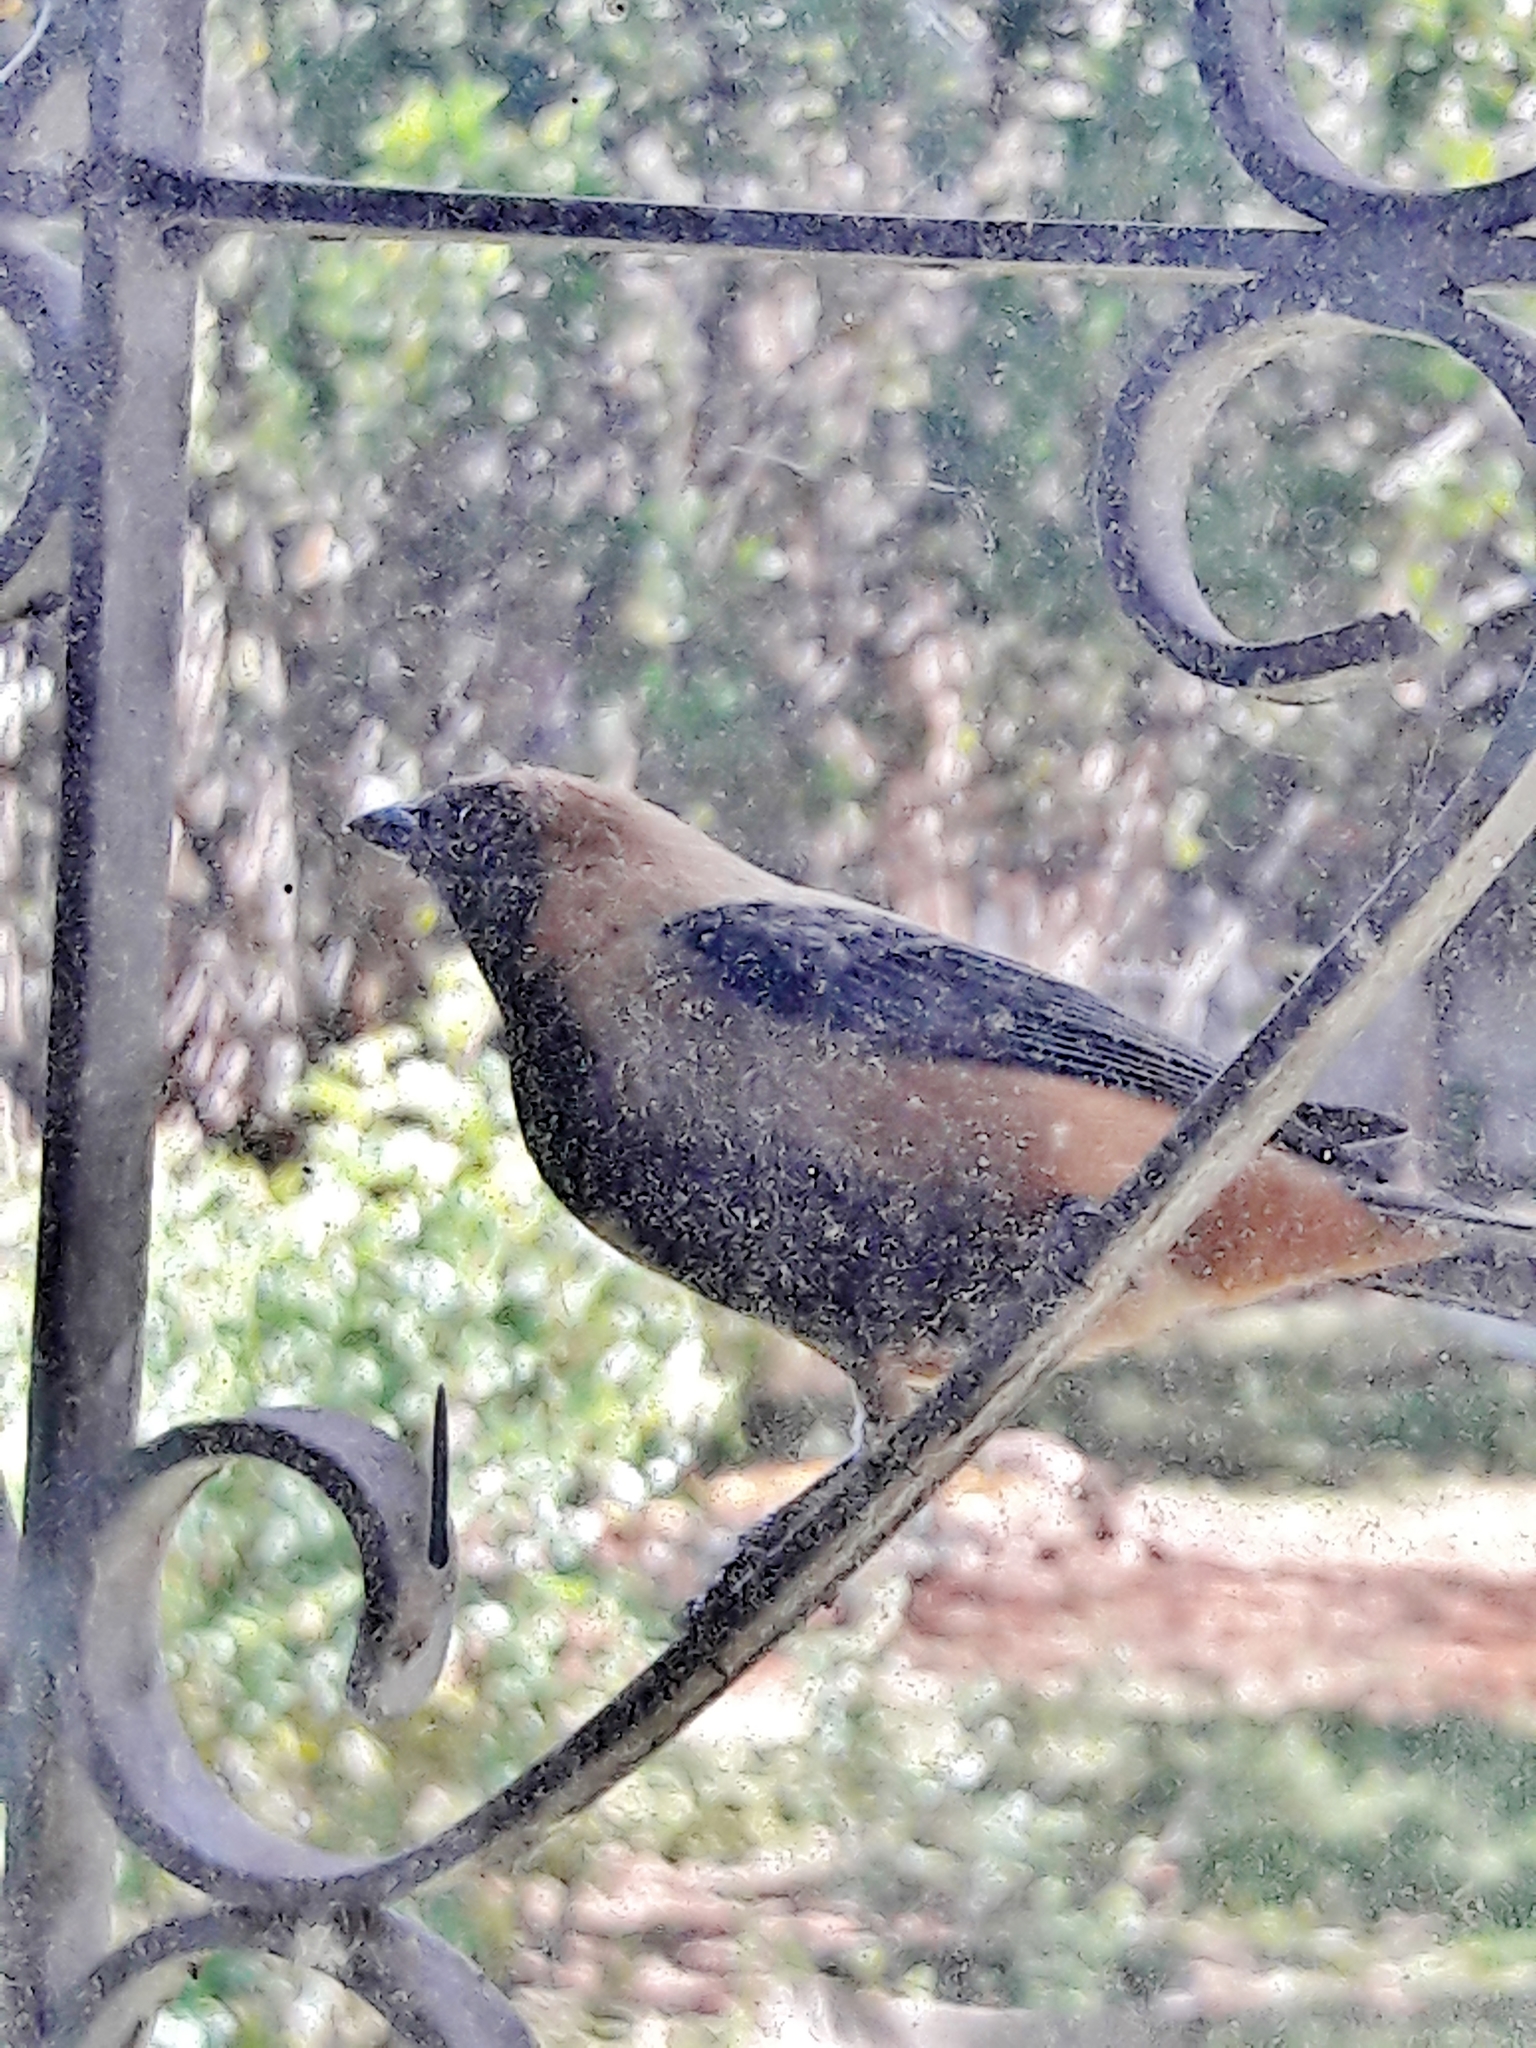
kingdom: Animalia
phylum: Chordata
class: Aves
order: Passeriformes
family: Thraupidae
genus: Stilpnia
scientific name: Stilpnia cayana
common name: Burnished-buff tanager
